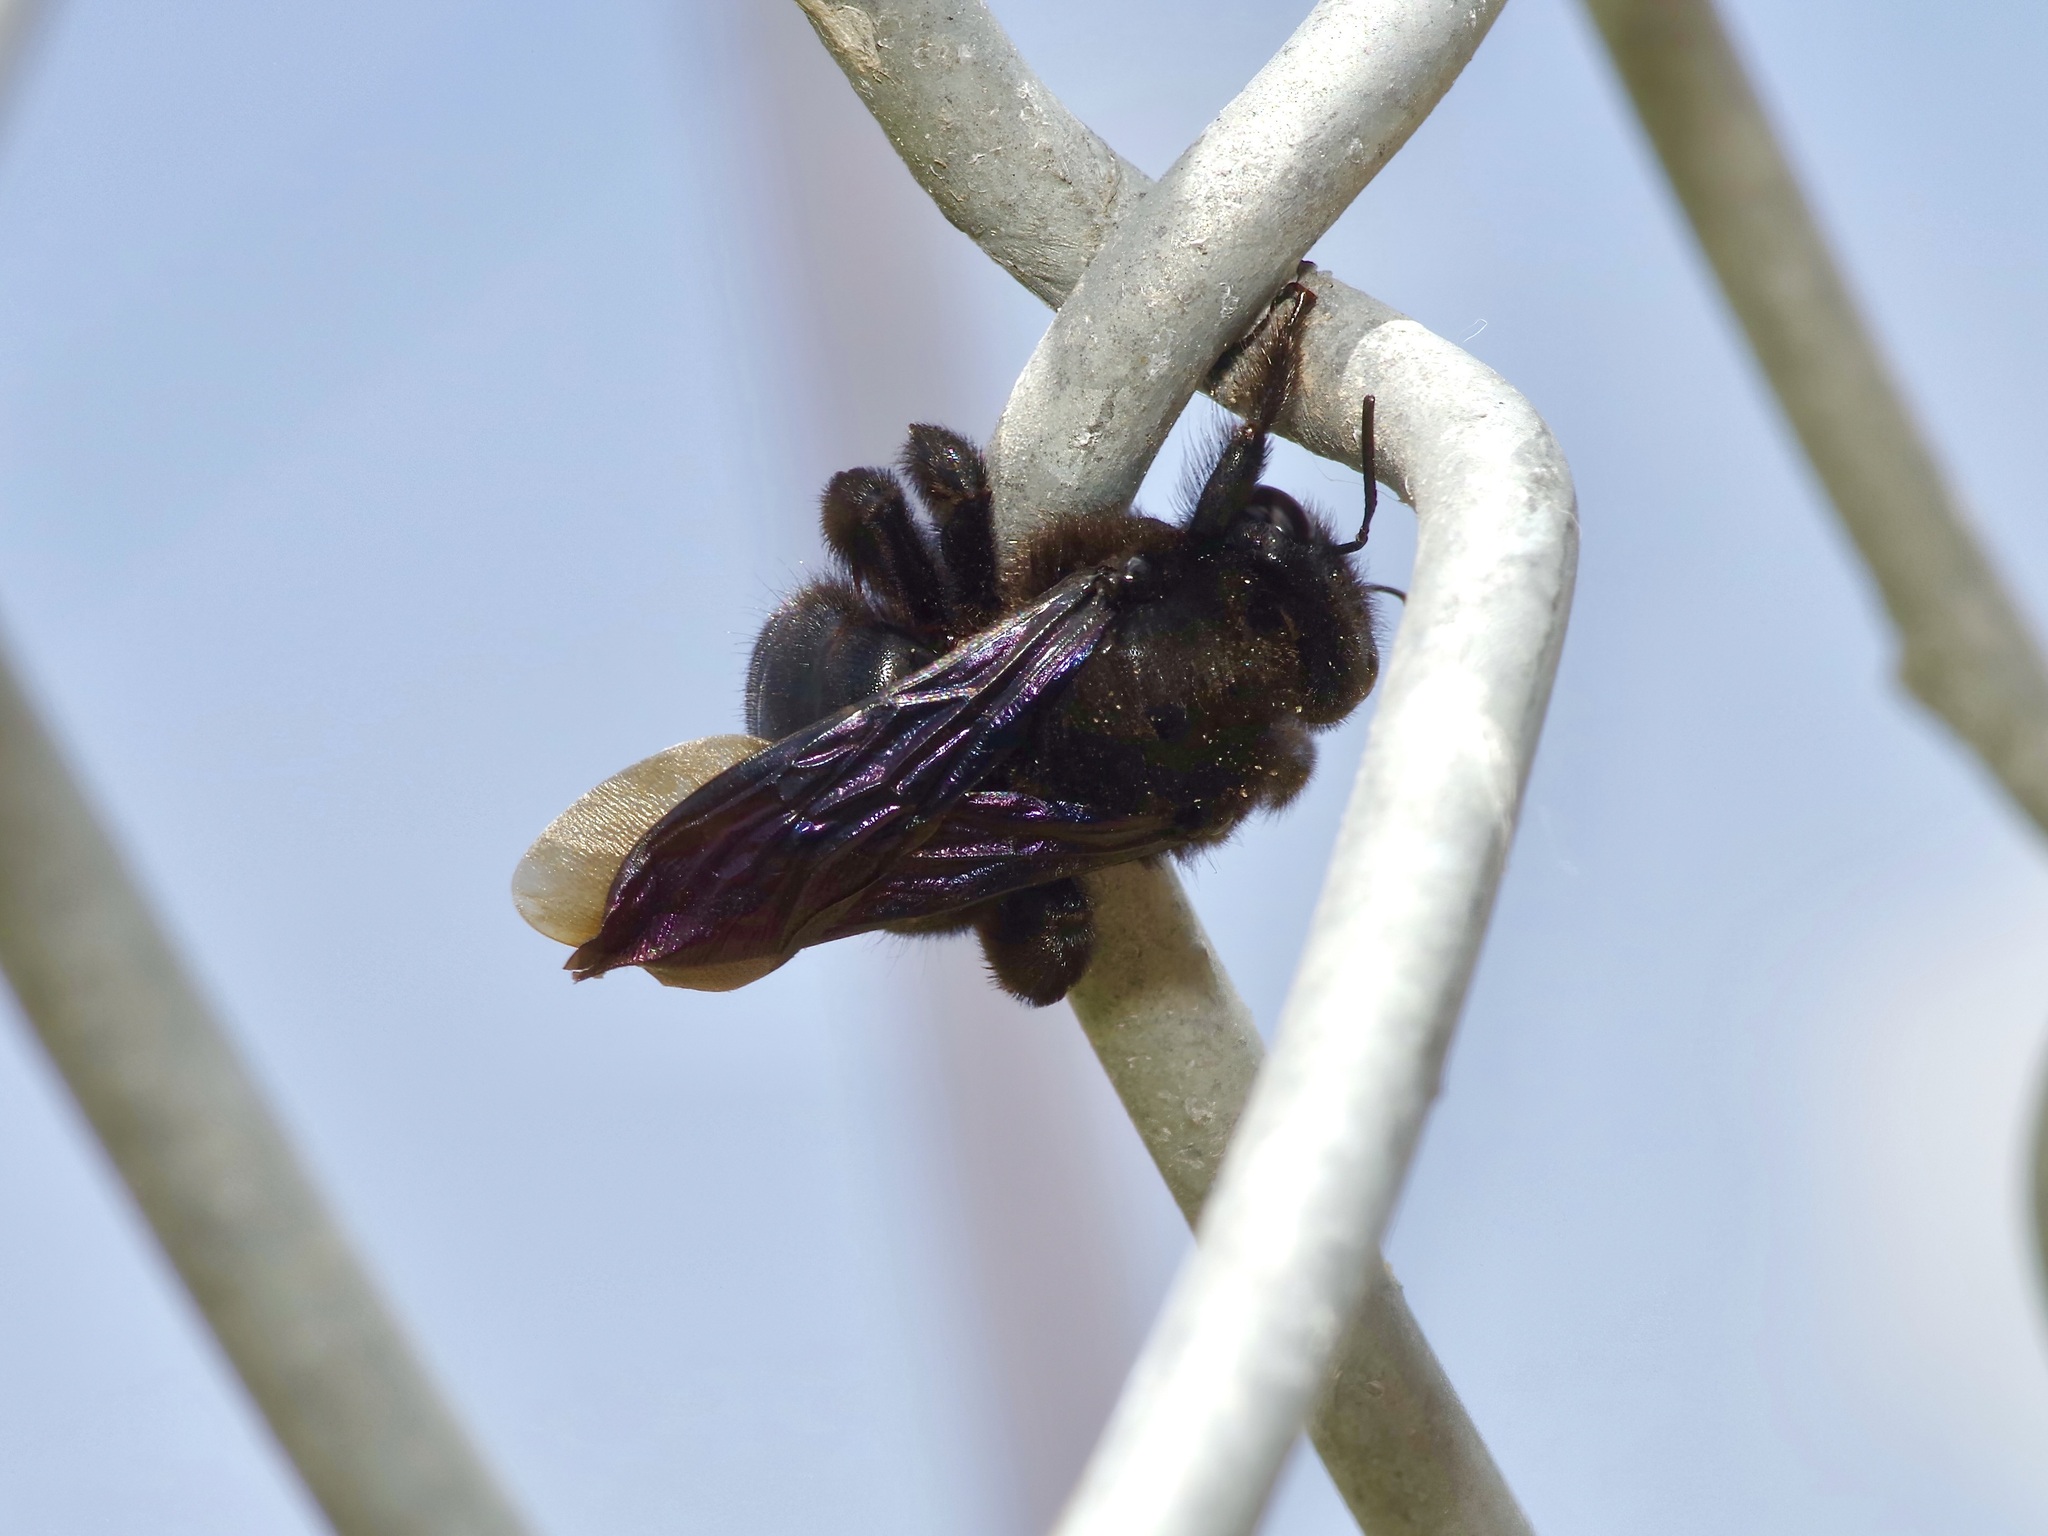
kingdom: Animalia
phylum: Arthropoda
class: Insecta
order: Hymenoptera
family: Apidae
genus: Xylocopa
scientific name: Xylocopa strandi
